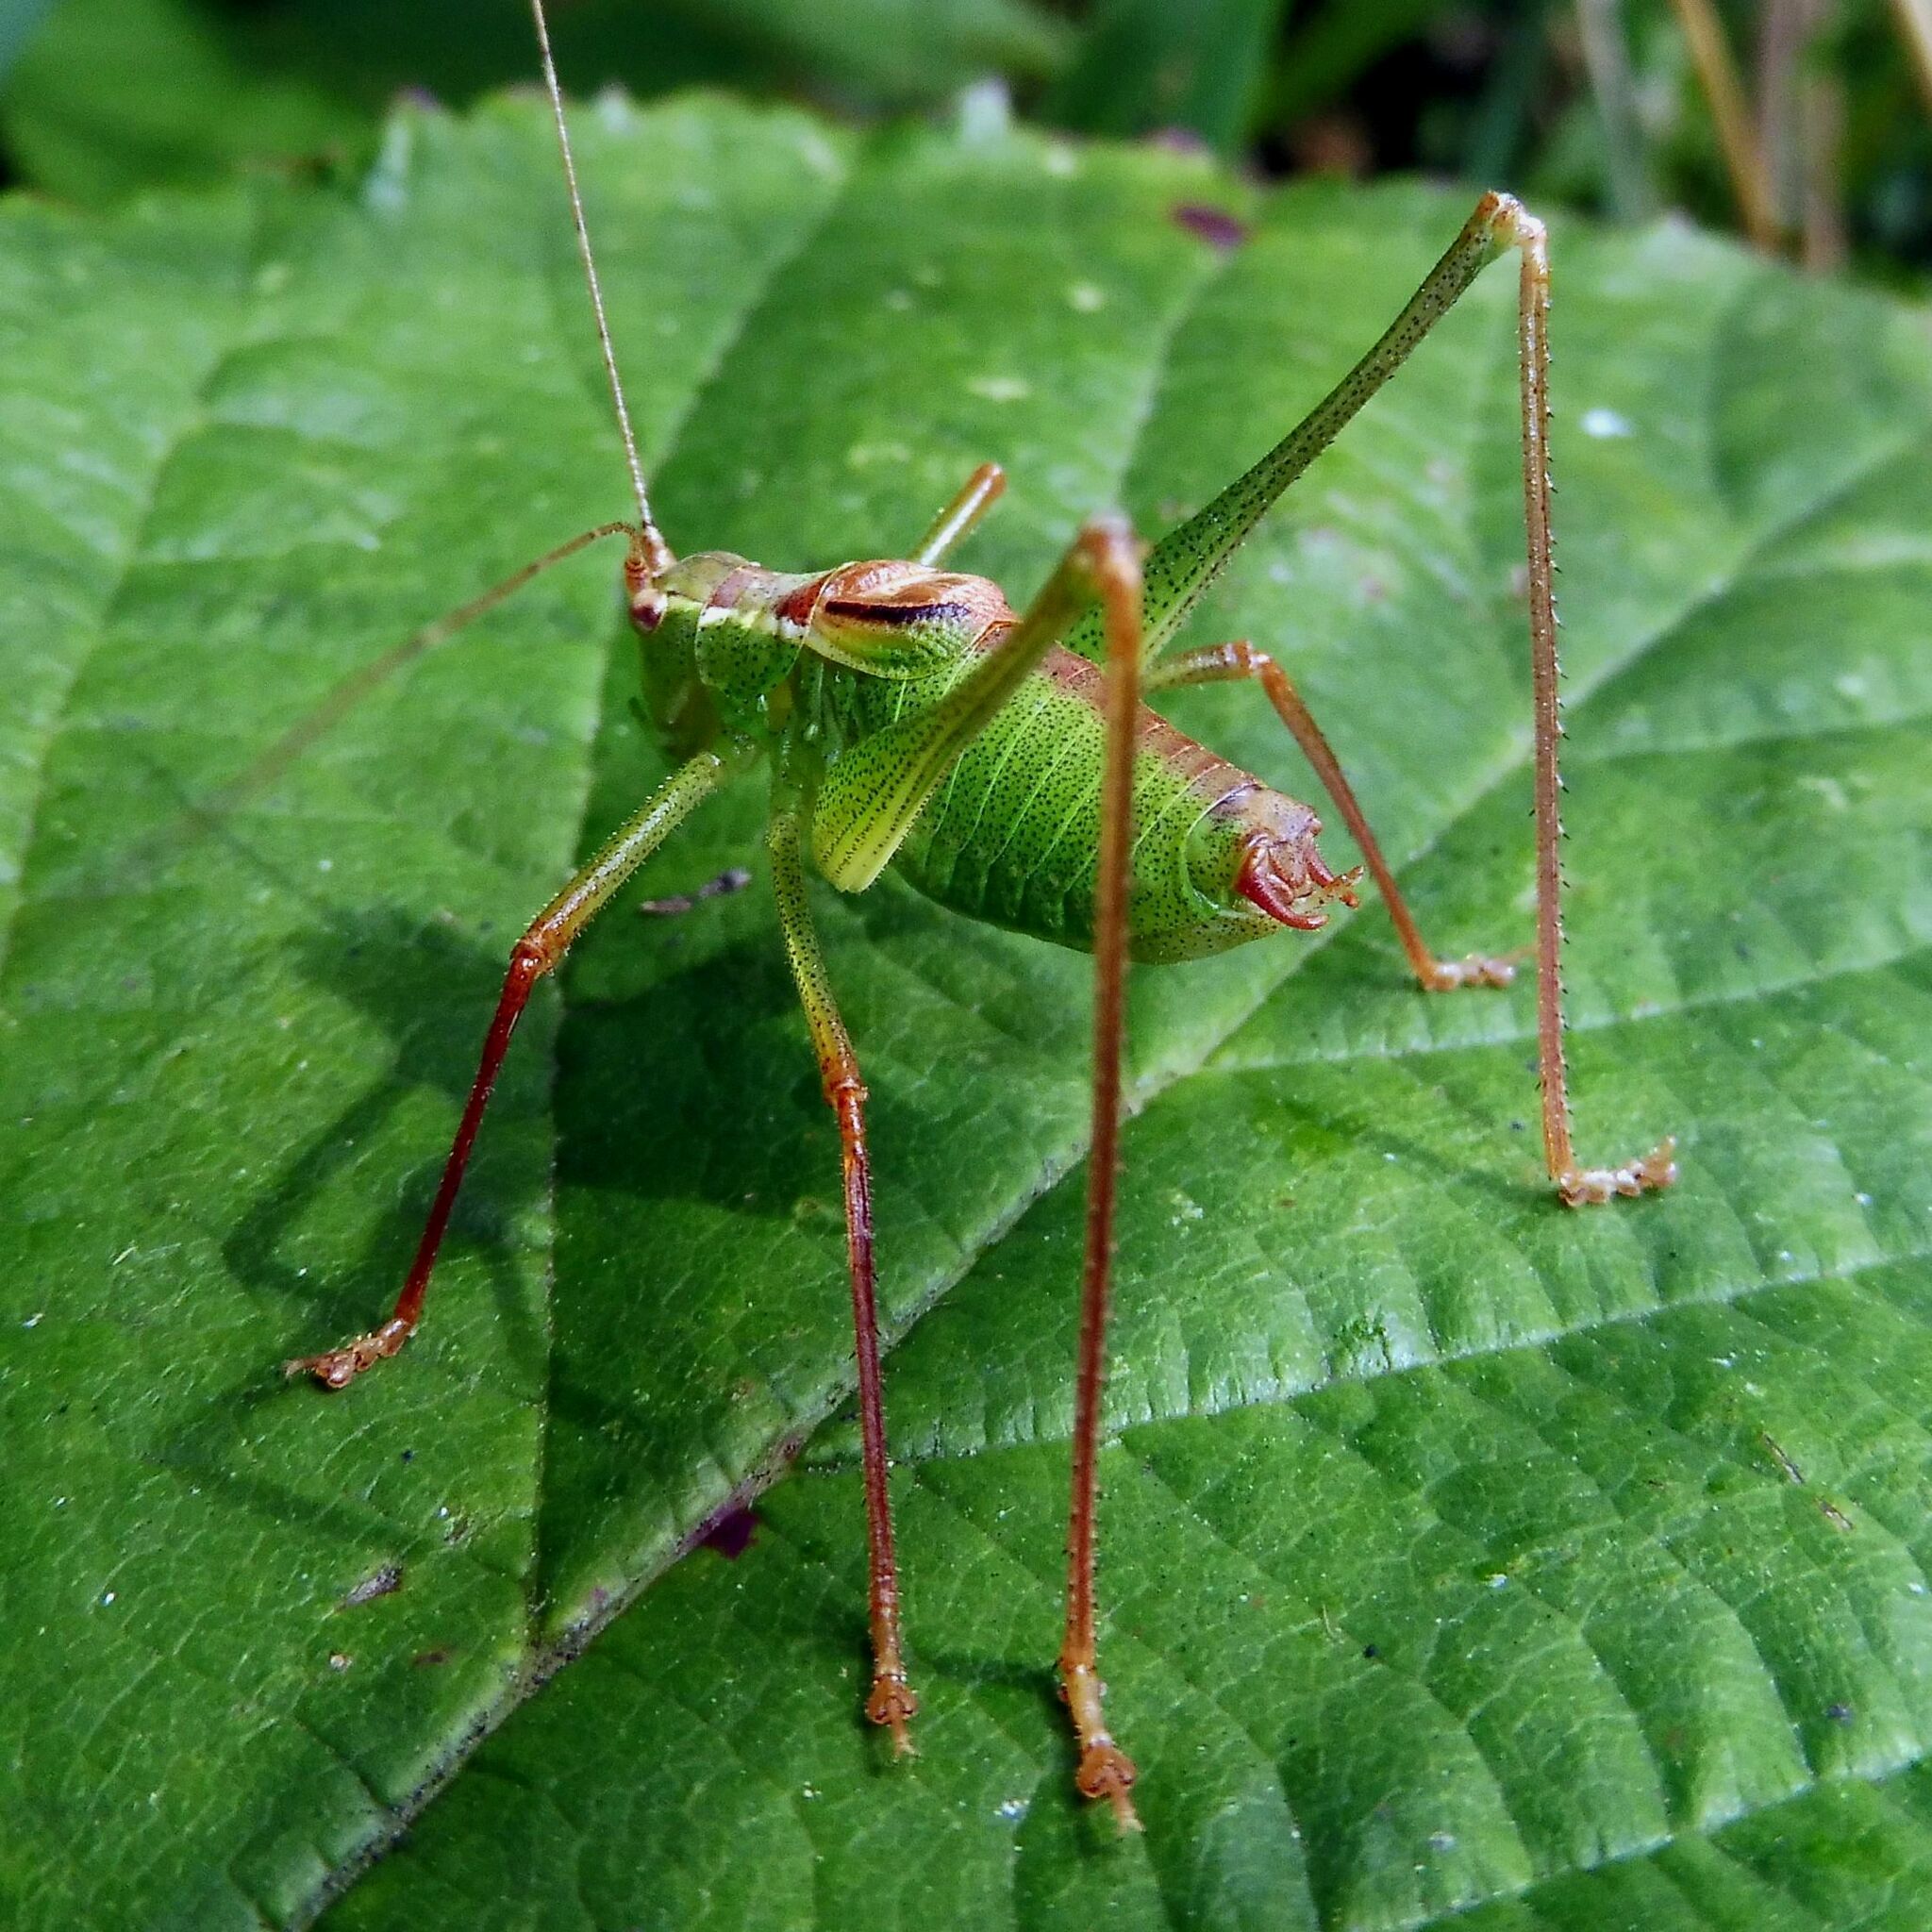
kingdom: Animalia
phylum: Arthropoda
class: Insecta
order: Orthoptera
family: Tettigoniidae
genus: Leptophyes
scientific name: Leptophyes punctatissima
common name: Speckled bush-cricket
